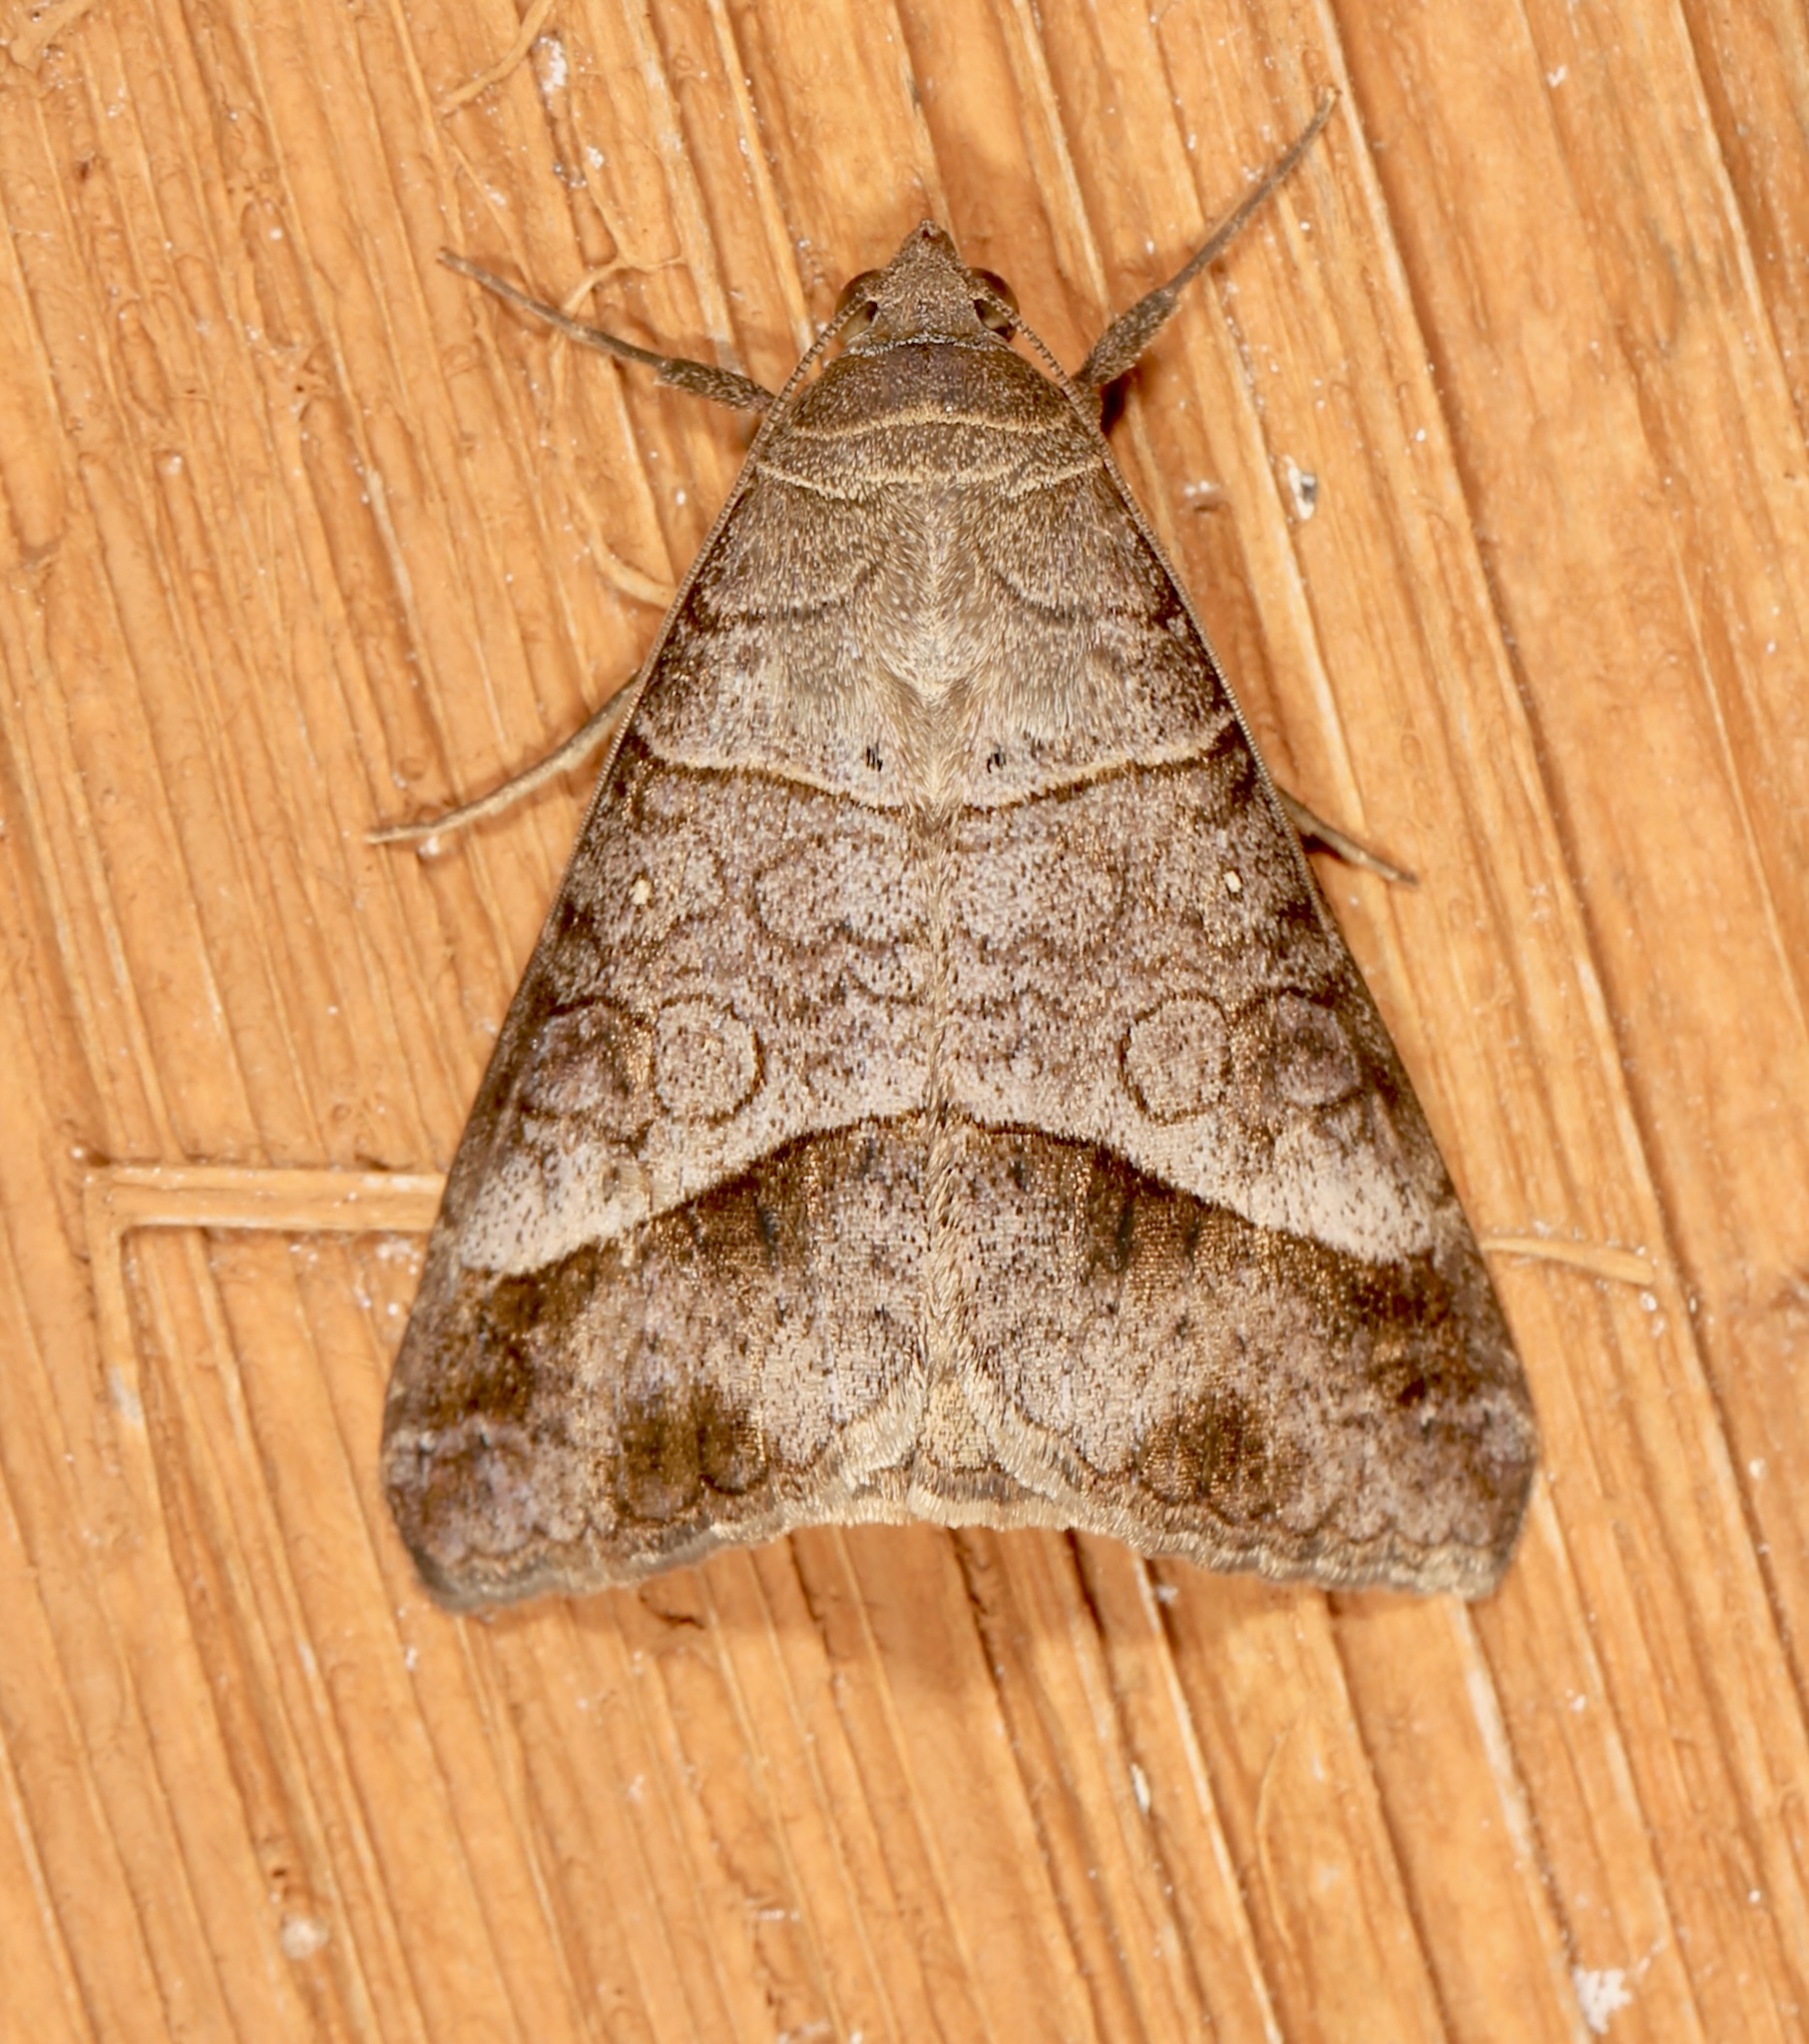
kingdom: Animalia
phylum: Arthropoda
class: Insecta
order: Lepidoptera
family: Erebidae
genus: Mocis
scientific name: Mocis latipes
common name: Striped grass looper
